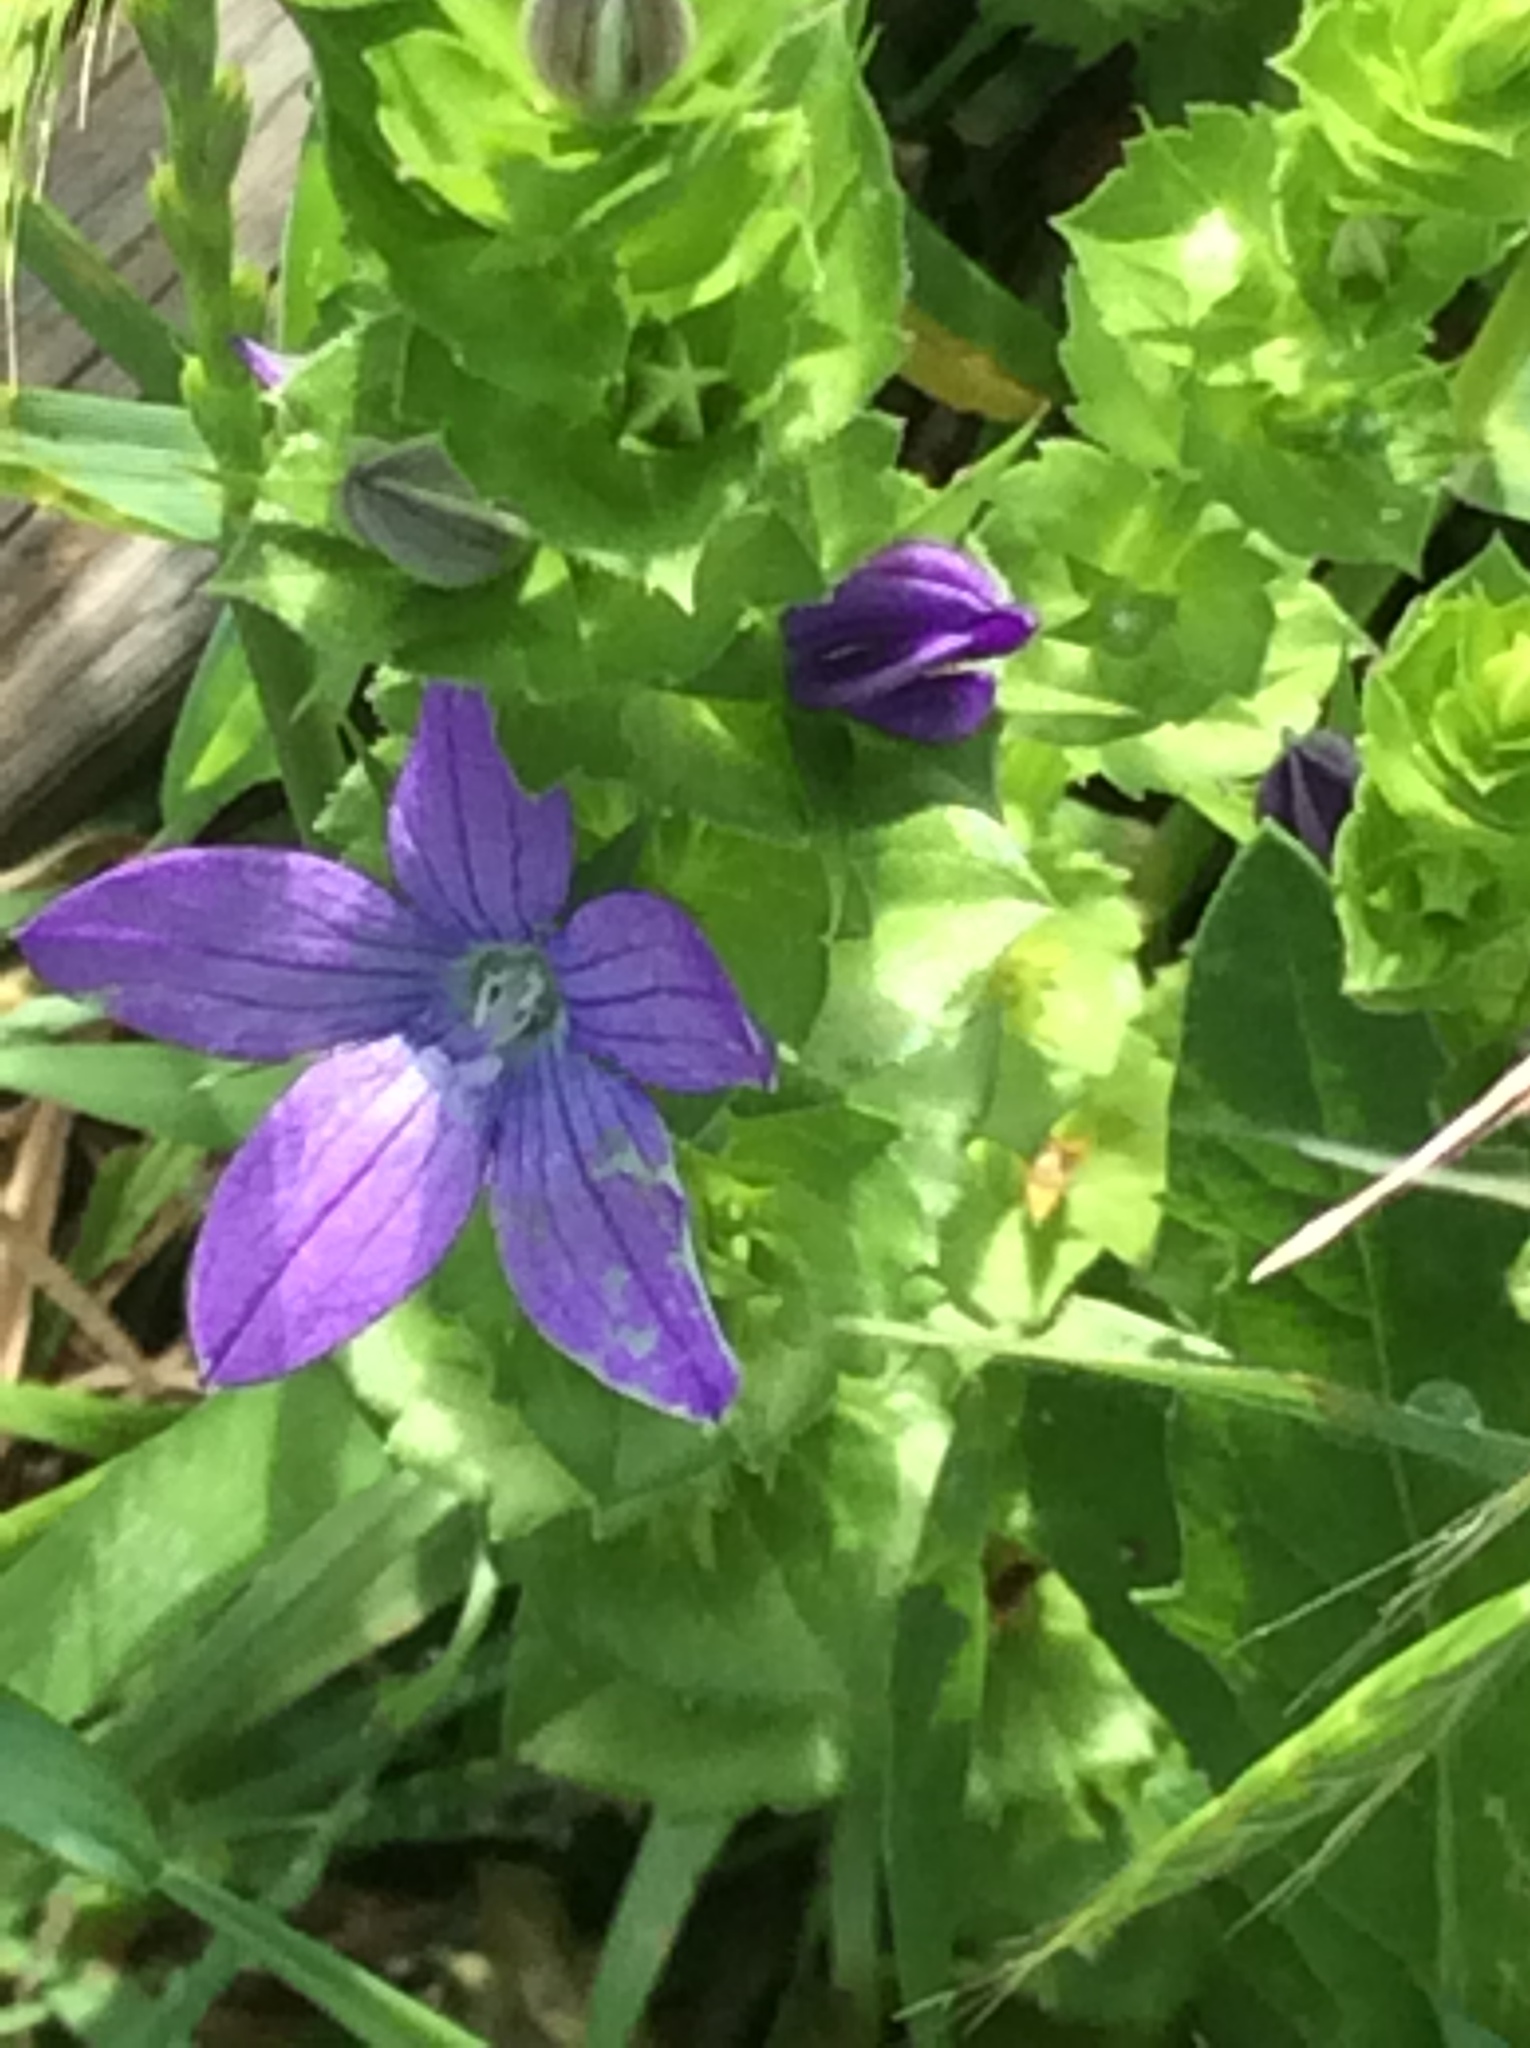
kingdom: Plantae
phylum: Tracheophyta
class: Magnoliopsida
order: Asterales
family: Campanulaceae
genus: Triodanis
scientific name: Triodanis
